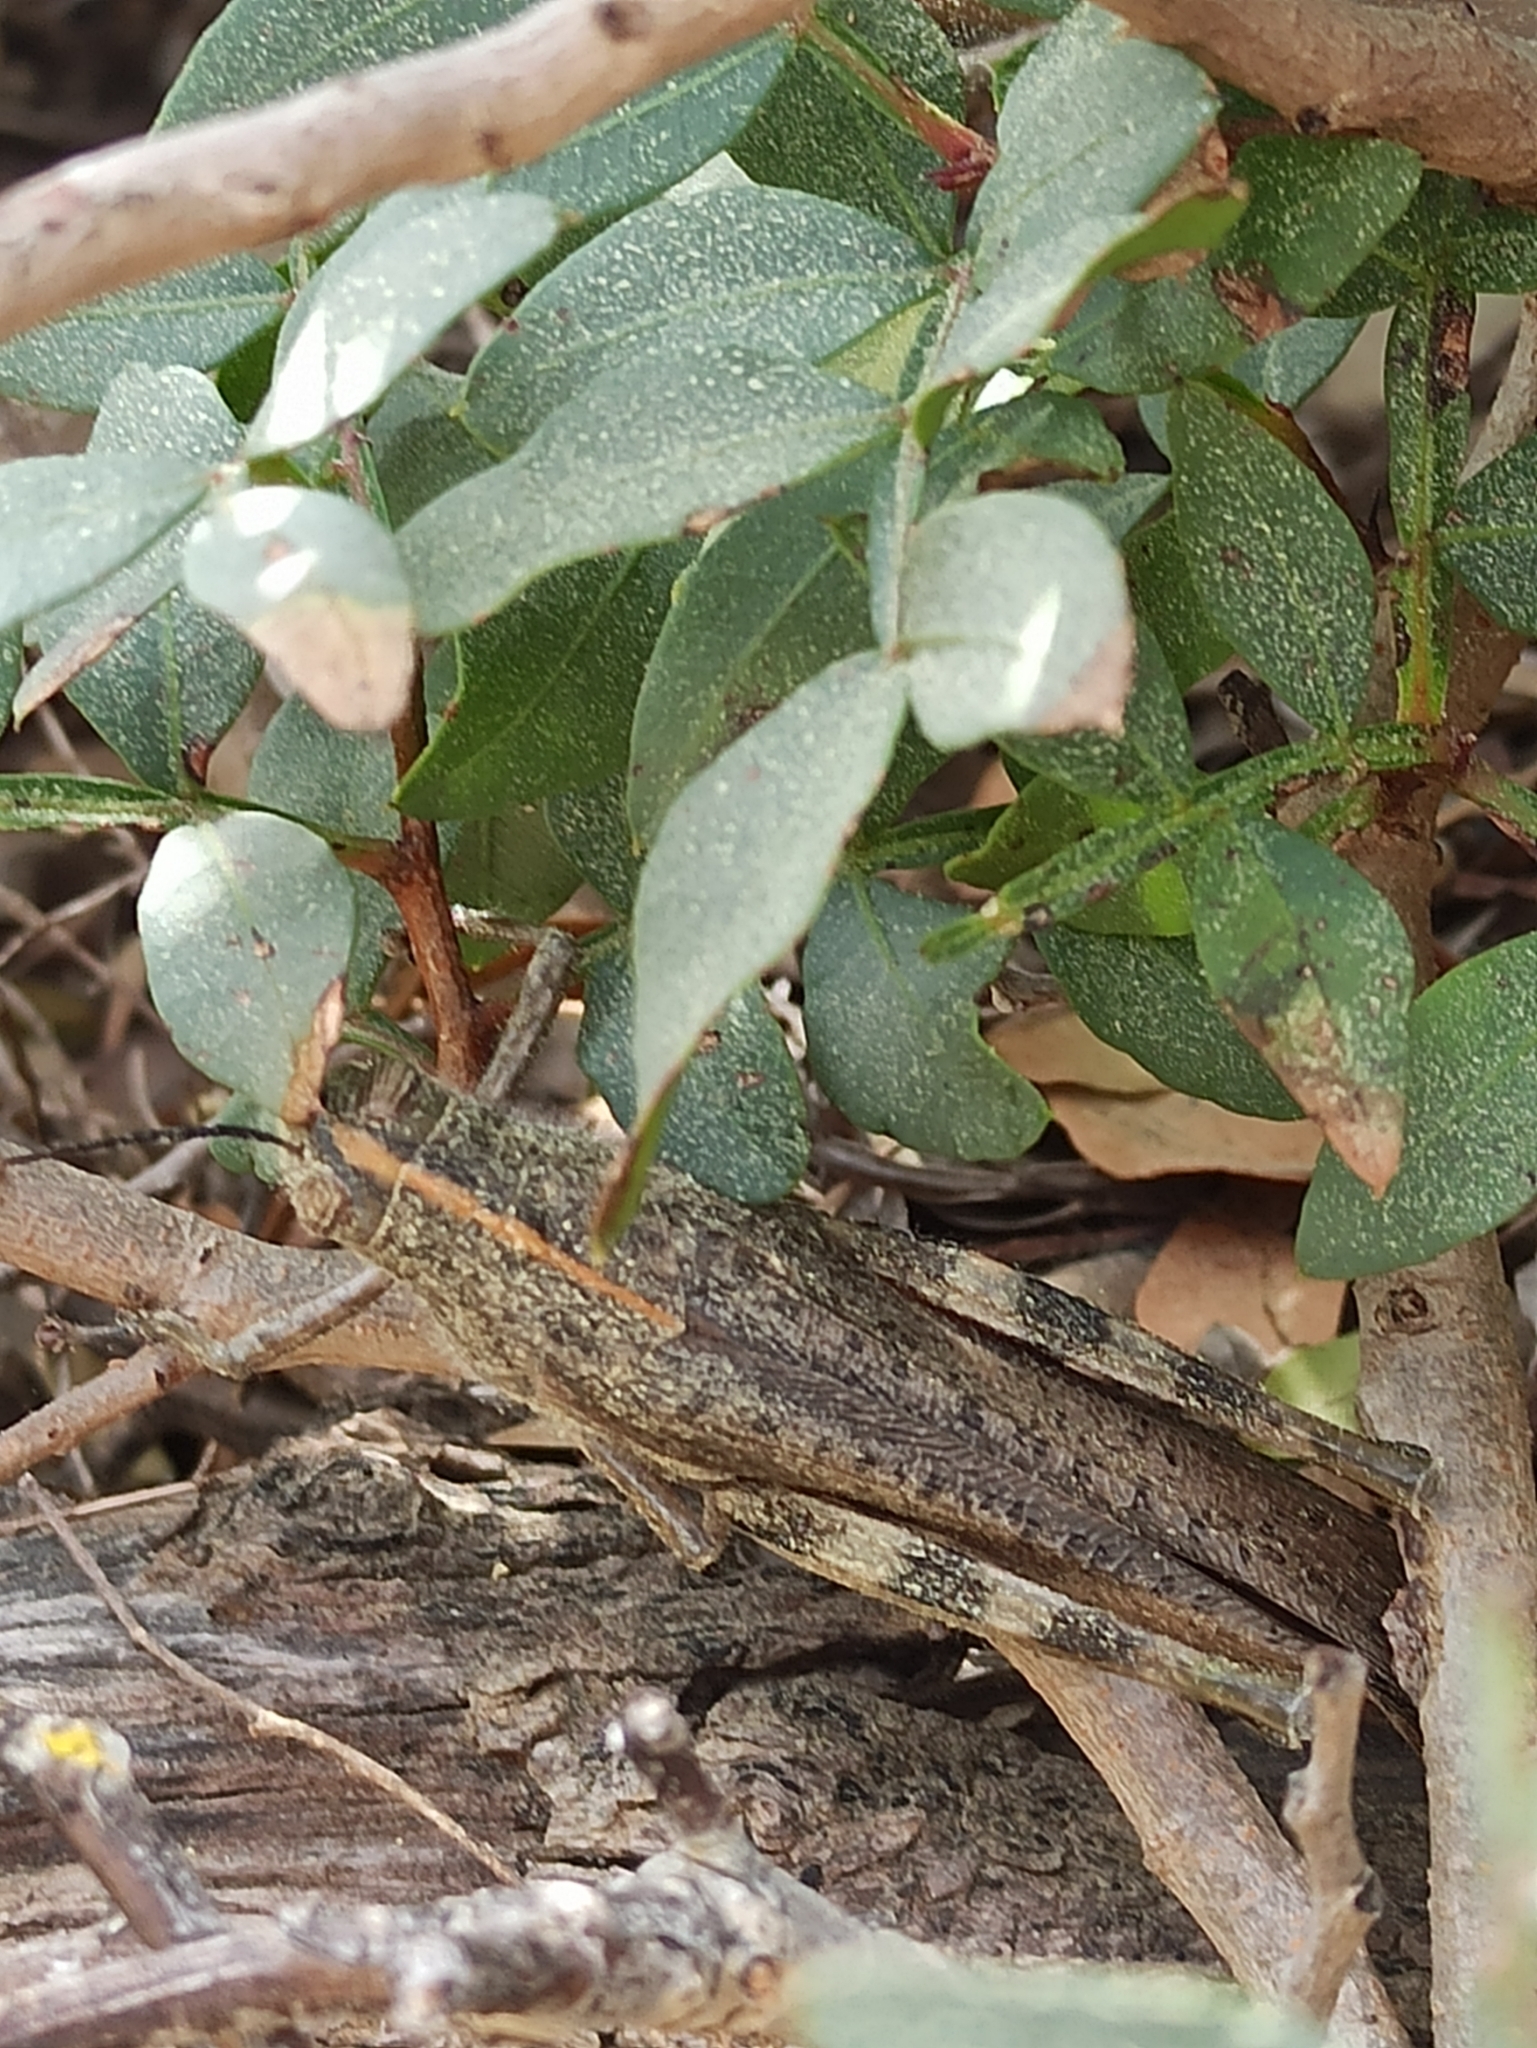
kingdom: Animalia
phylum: Arthropoda
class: Insecta
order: Orthoptera
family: Acrididae
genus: Anacridium
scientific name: Anacridium aegyptium
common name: Egyptian grasshopper
